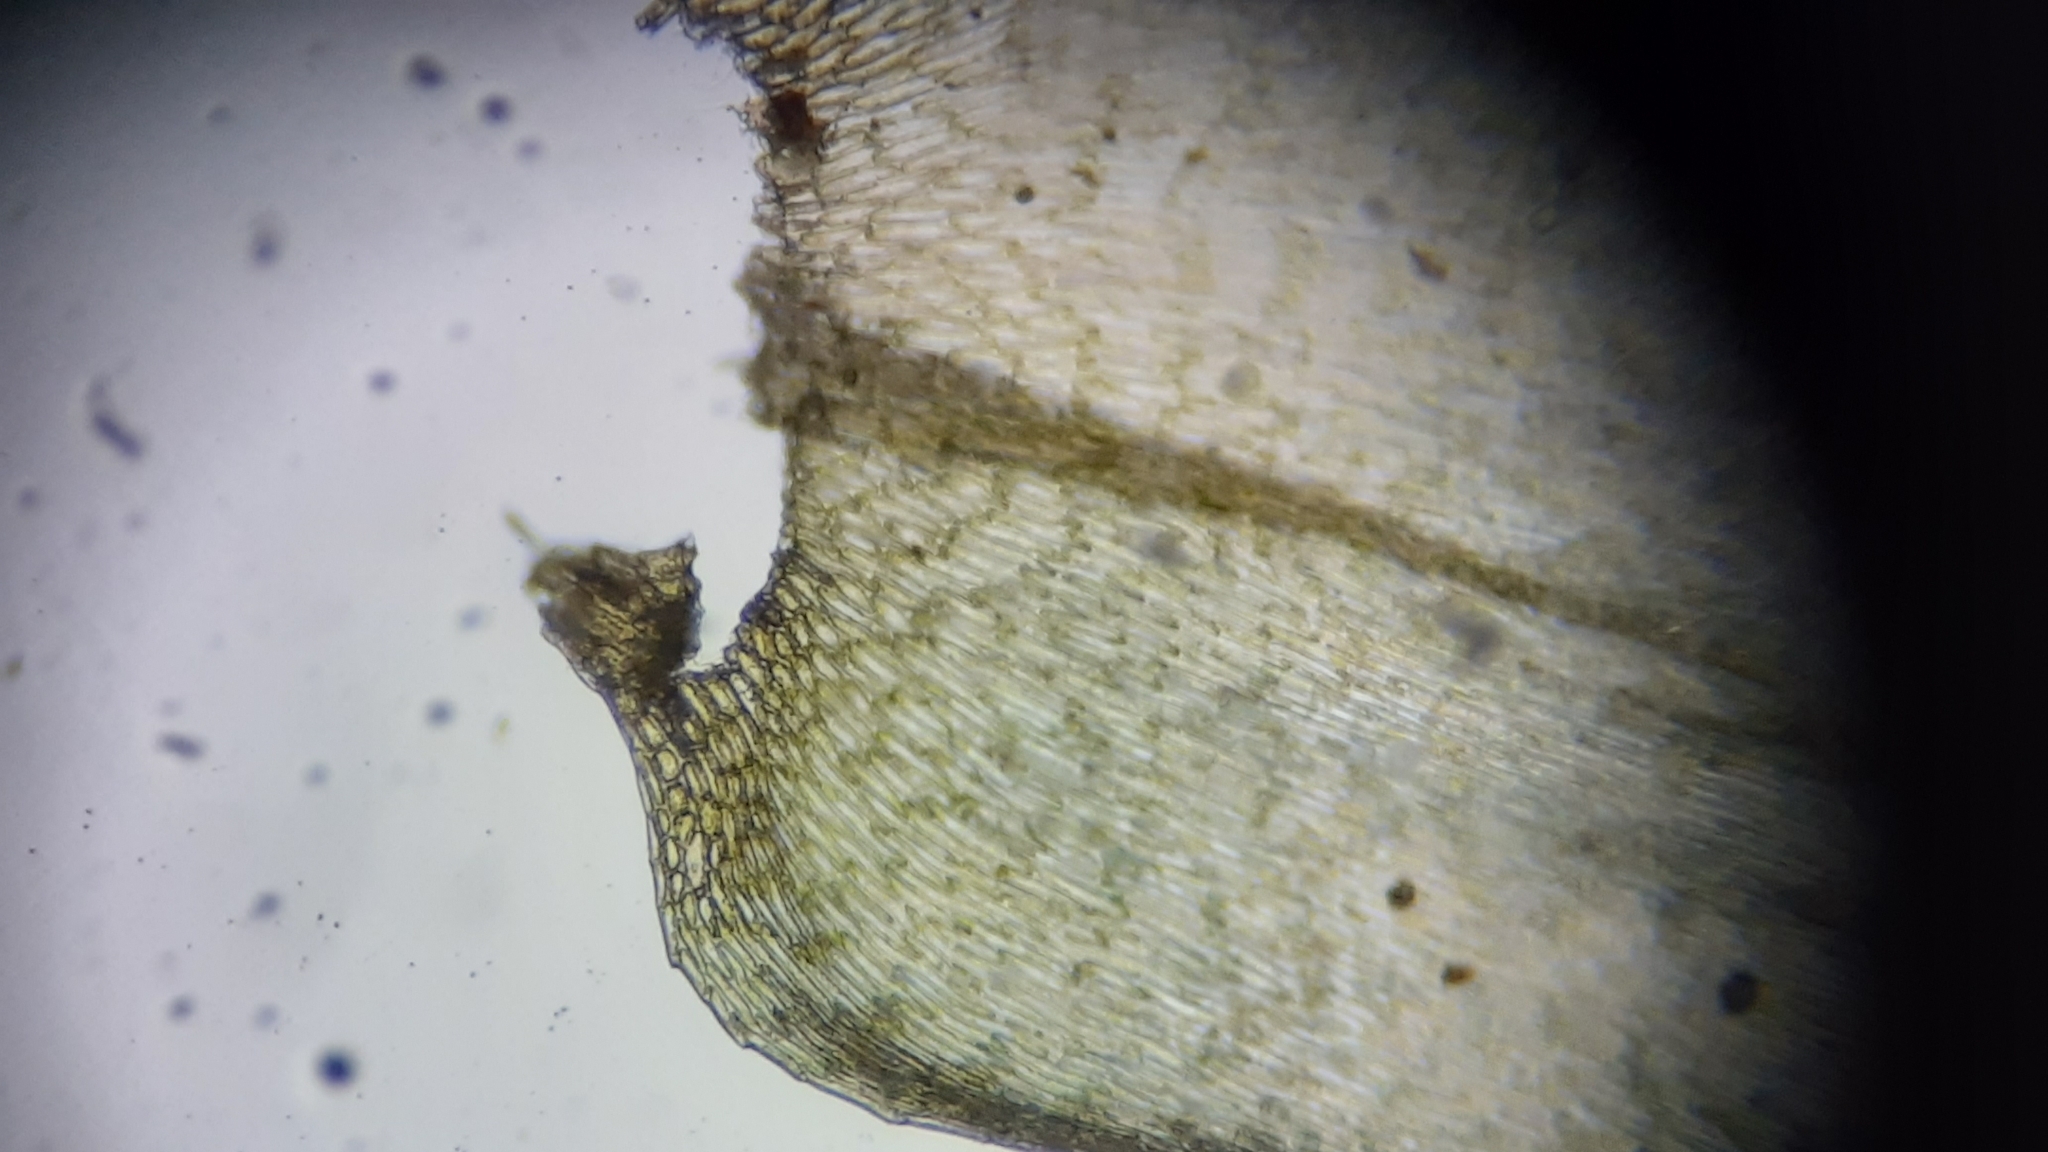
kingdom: Plantae
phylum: Bryophyta
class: Bryopsida
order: Hypnales
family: Brachytheciaceae
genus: Rhynchostegium
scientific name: Rhynchostegium serrulatum
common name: Serrulate-leaved long-beaked moss
